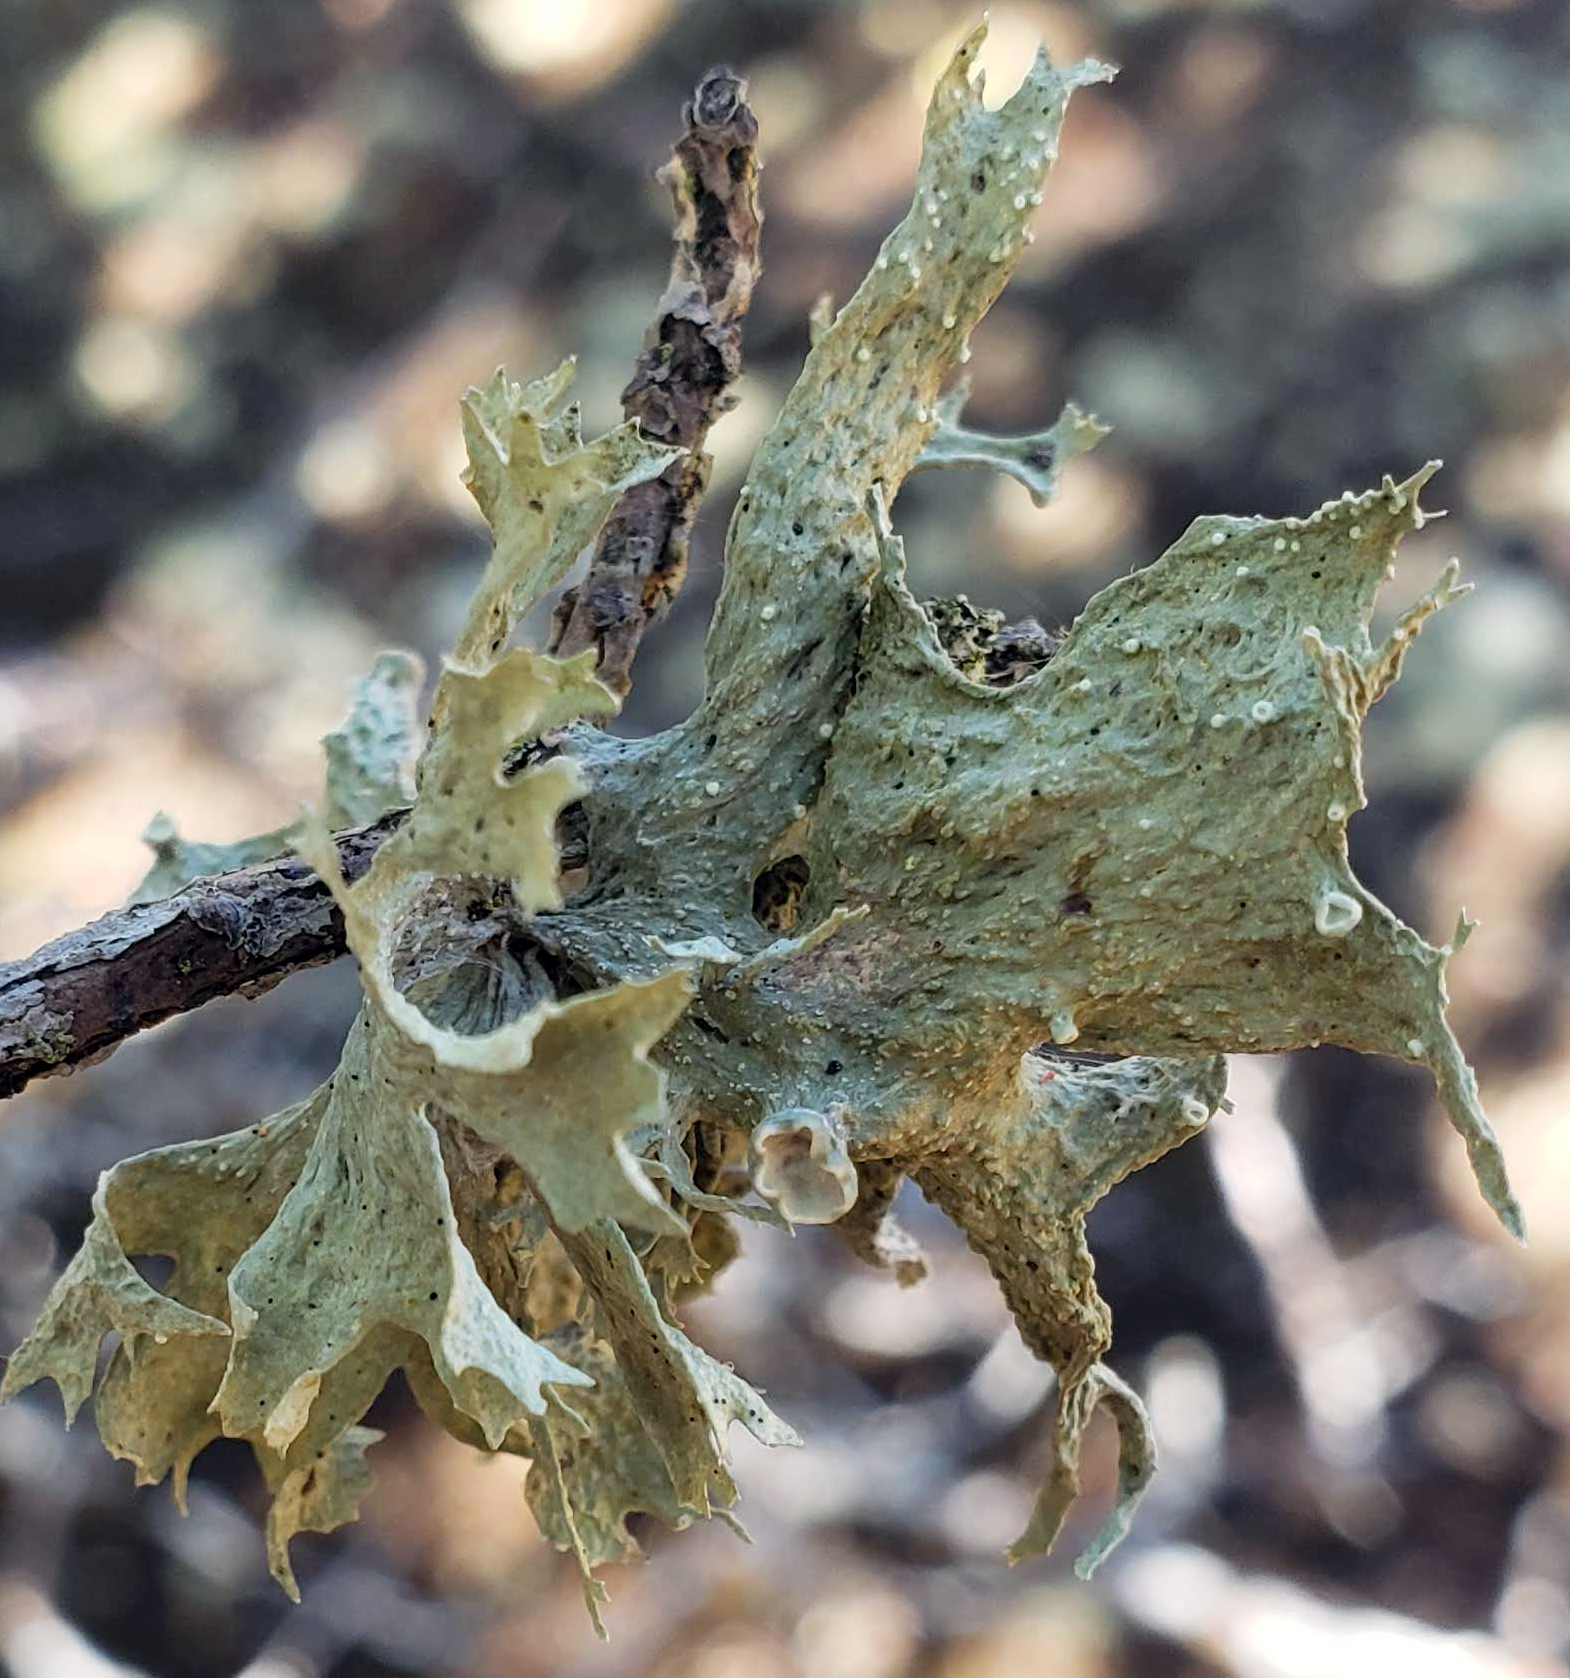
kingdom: Fungi
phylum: Ascomycota
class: Lecanoromycetes
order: Lecanorales
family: Ramalinaceae
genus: Ramalina
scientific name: Ramalina americana
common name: Sinewed bush lichen
